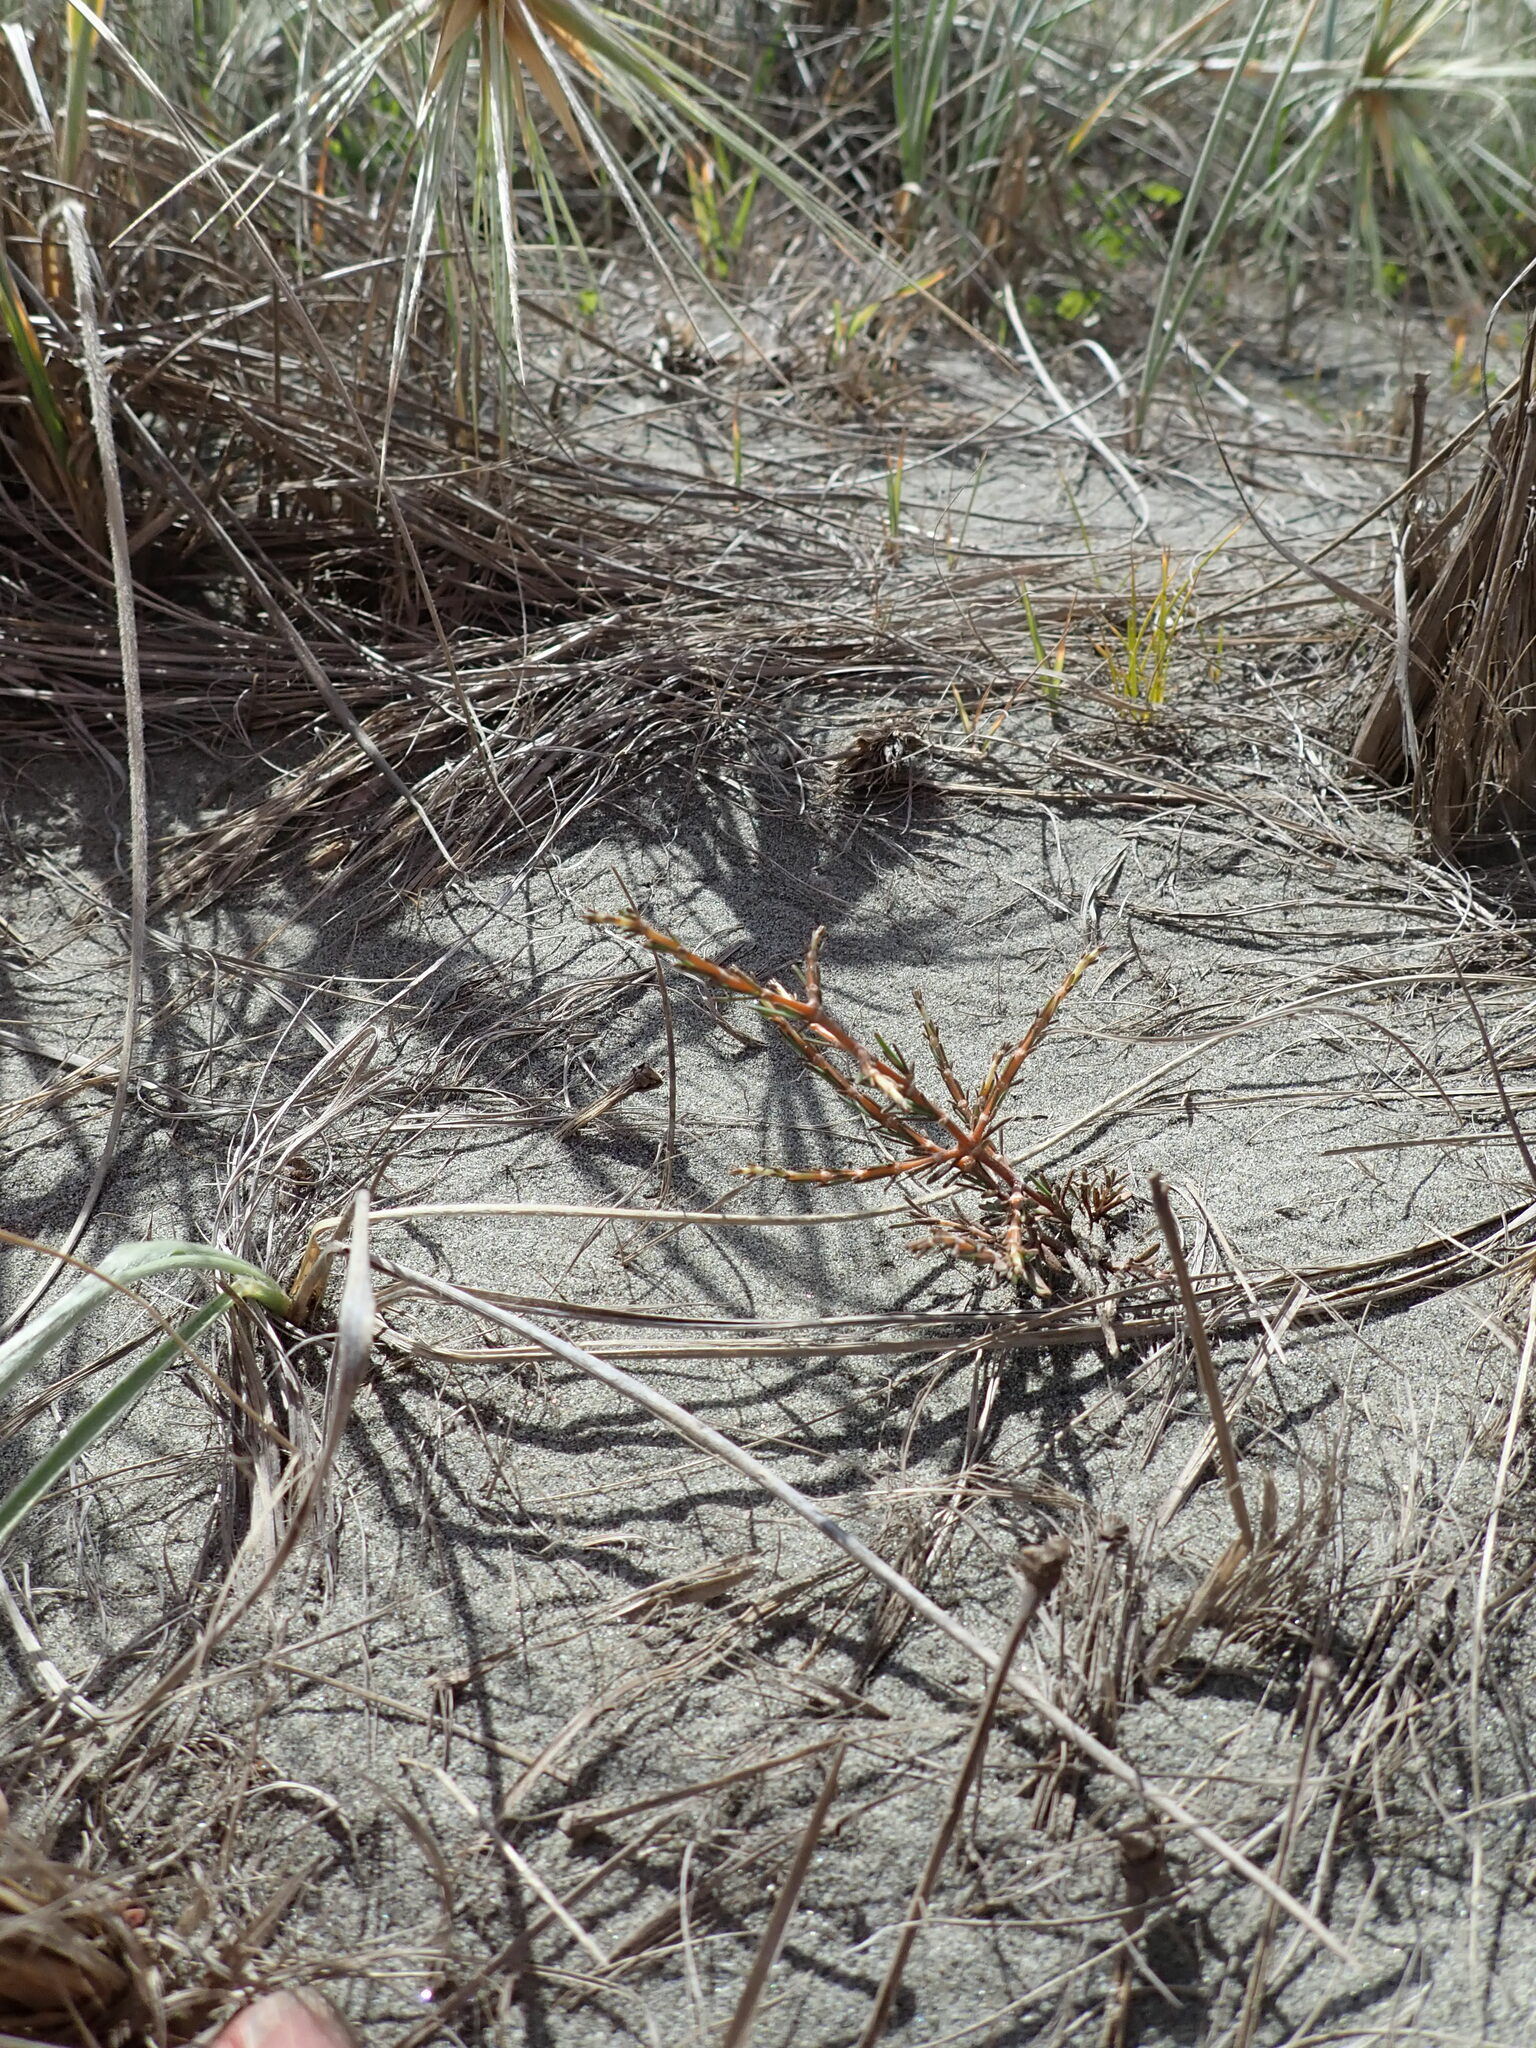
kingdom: Plantae
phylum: Tracheophyta
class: Magnoliopsida
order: Gentianales
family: Rubiaceae
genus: Coprosma
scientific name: Coprosma acerosa
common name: Sand coprosma
